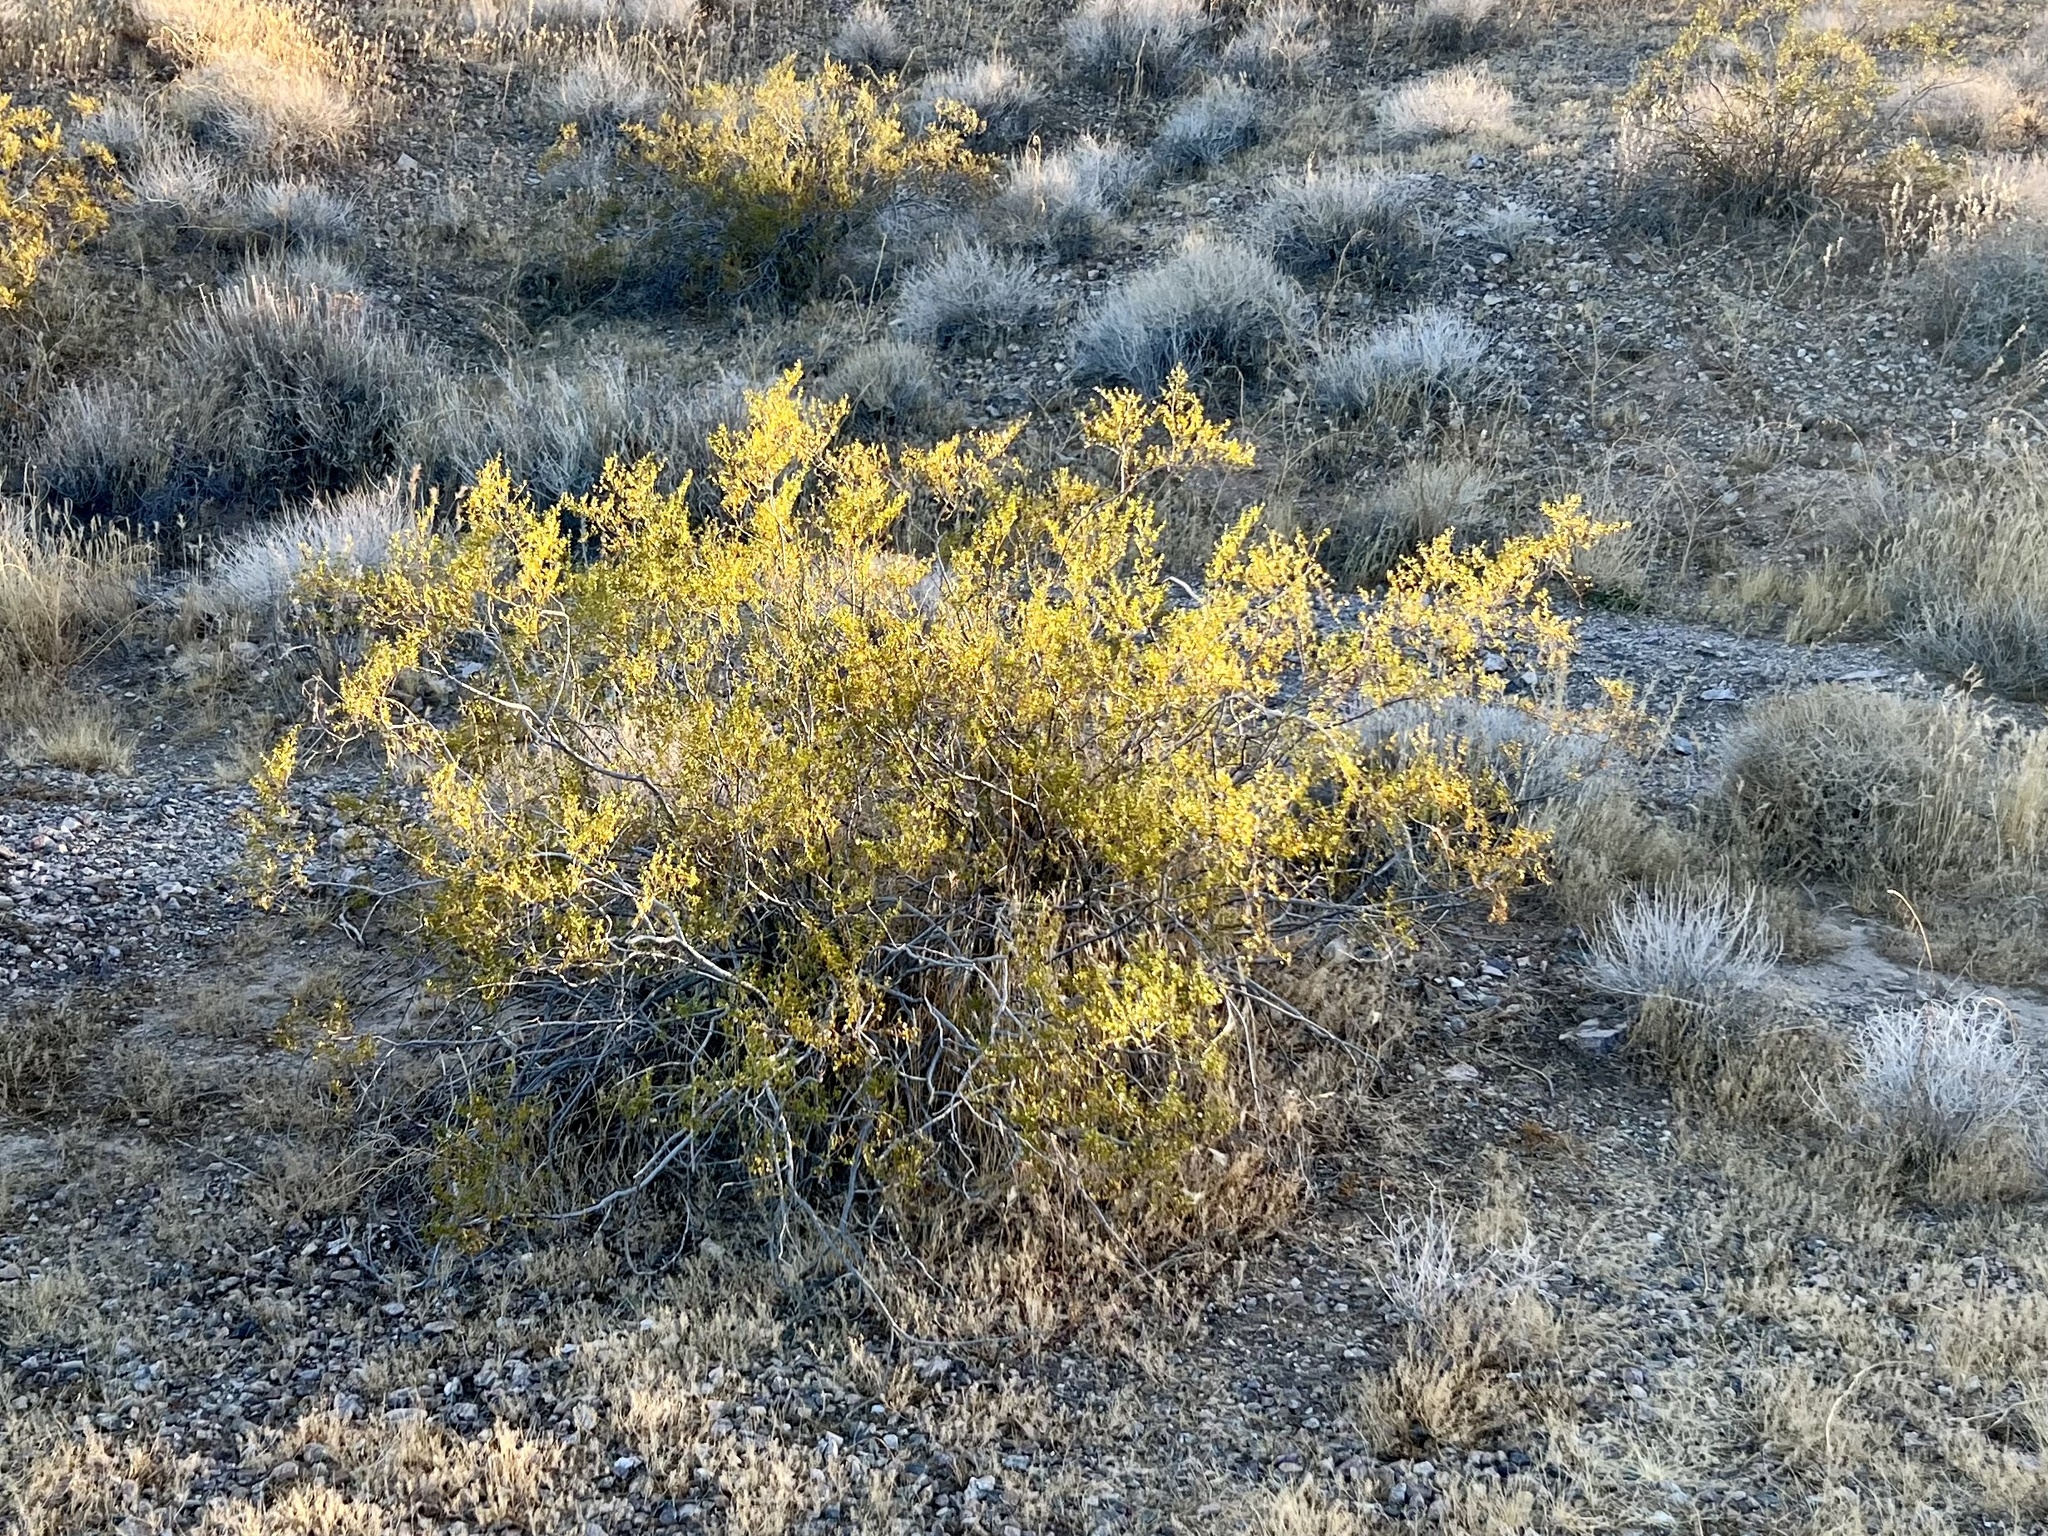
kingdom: Plantae
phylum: Tracheophyta
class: Magnoliopsida
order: Zygophyllales
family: Zygophyllaceae
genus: Larrea
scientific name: Larrea tridentata
